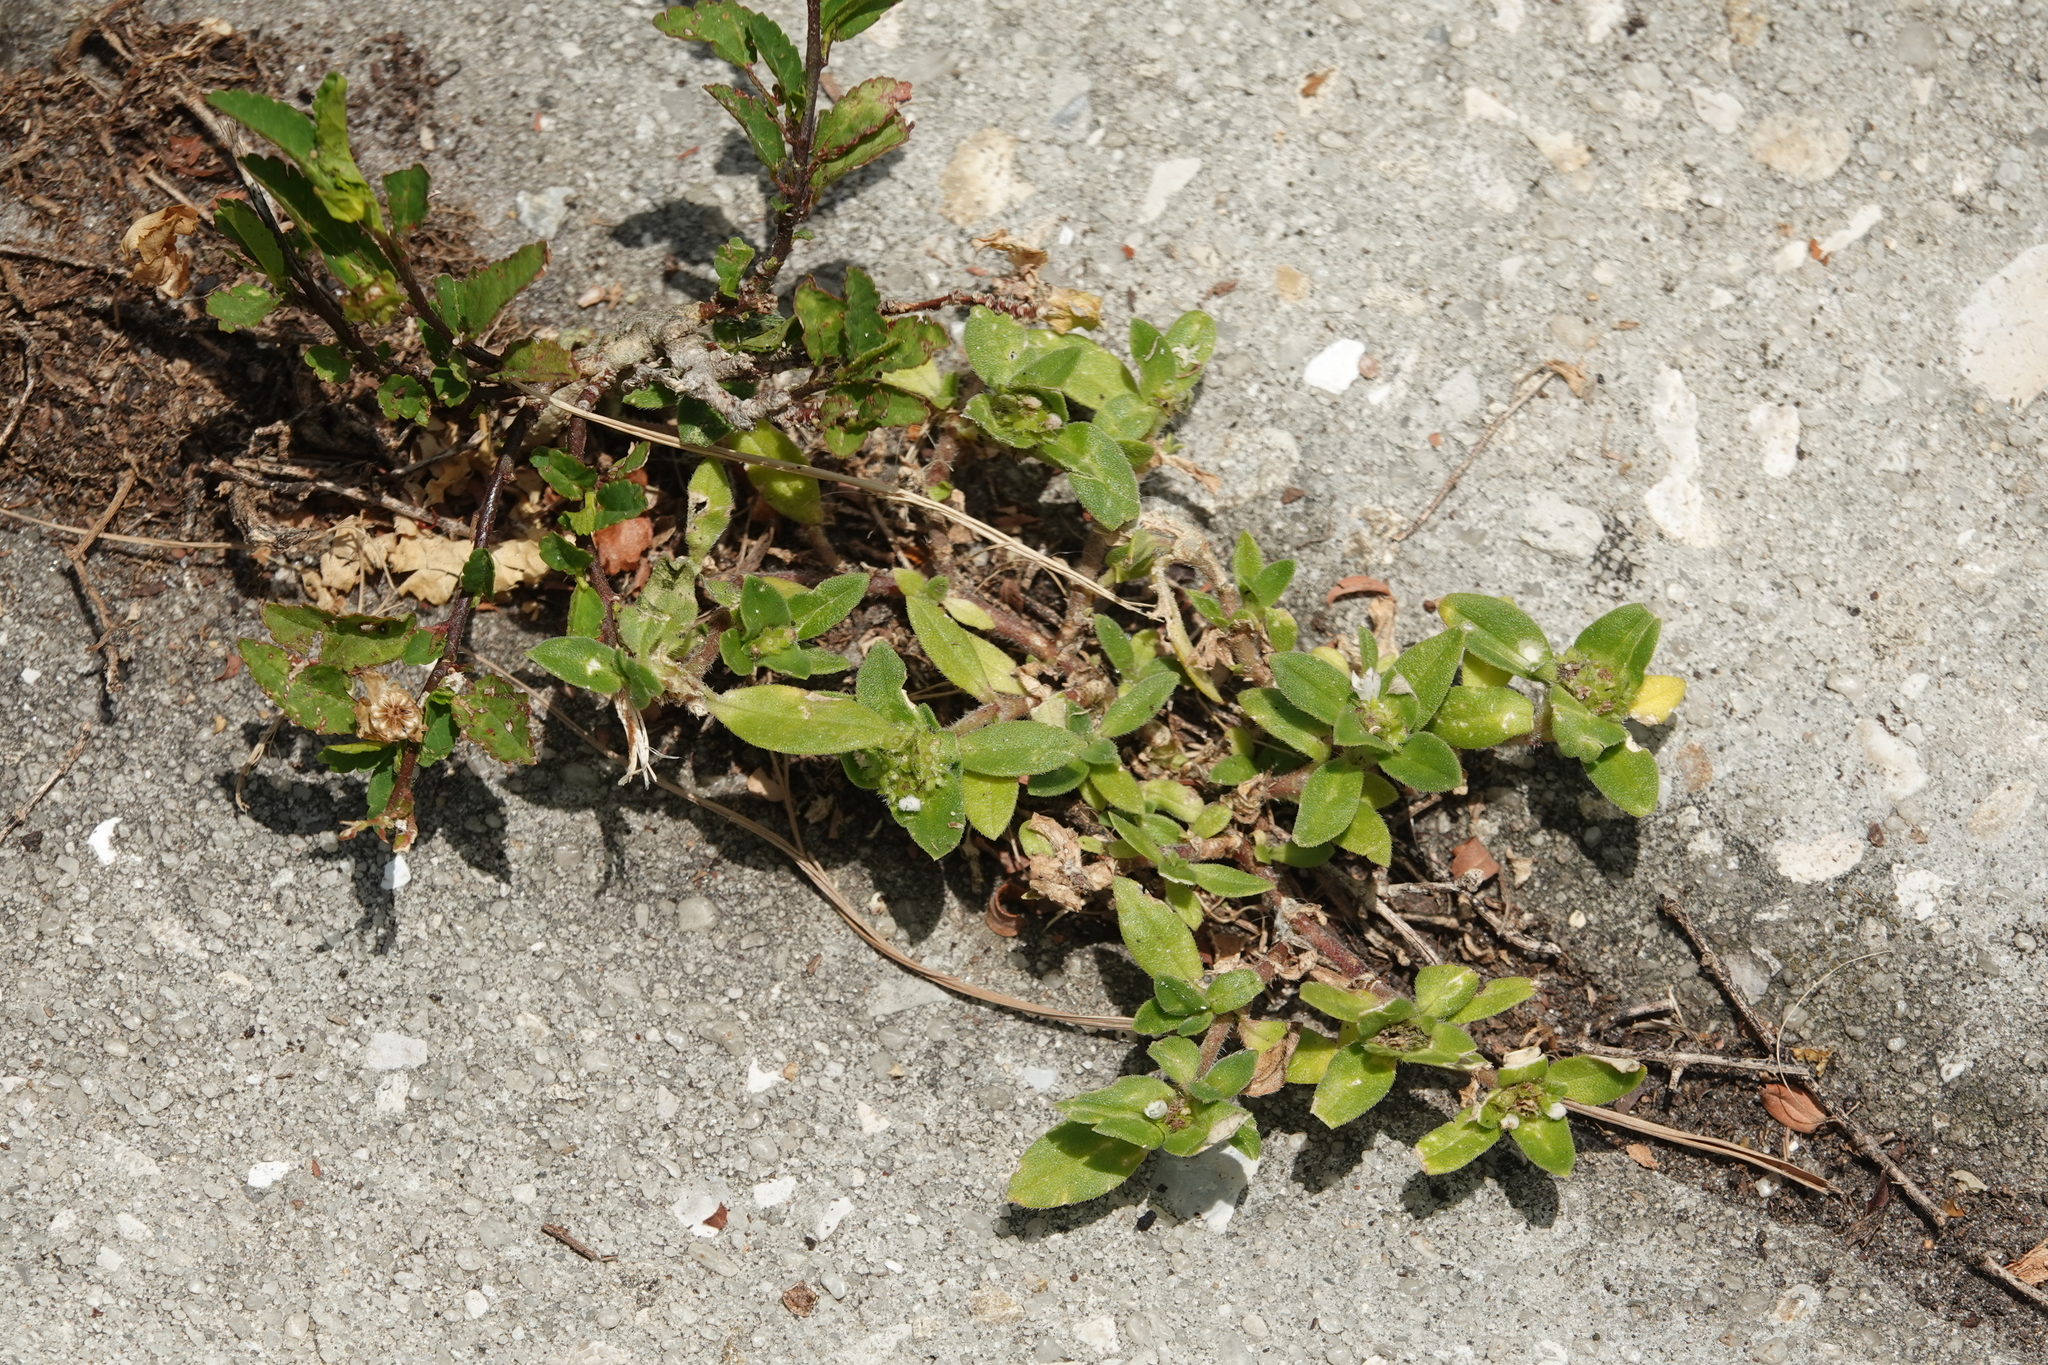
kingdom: Plantae
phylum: Tracheophyta
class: Magnoliopsida
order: Gentianales
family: Rubiaceae
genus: Richardia
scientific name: Richardia scabra
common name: Rough mexican clover
